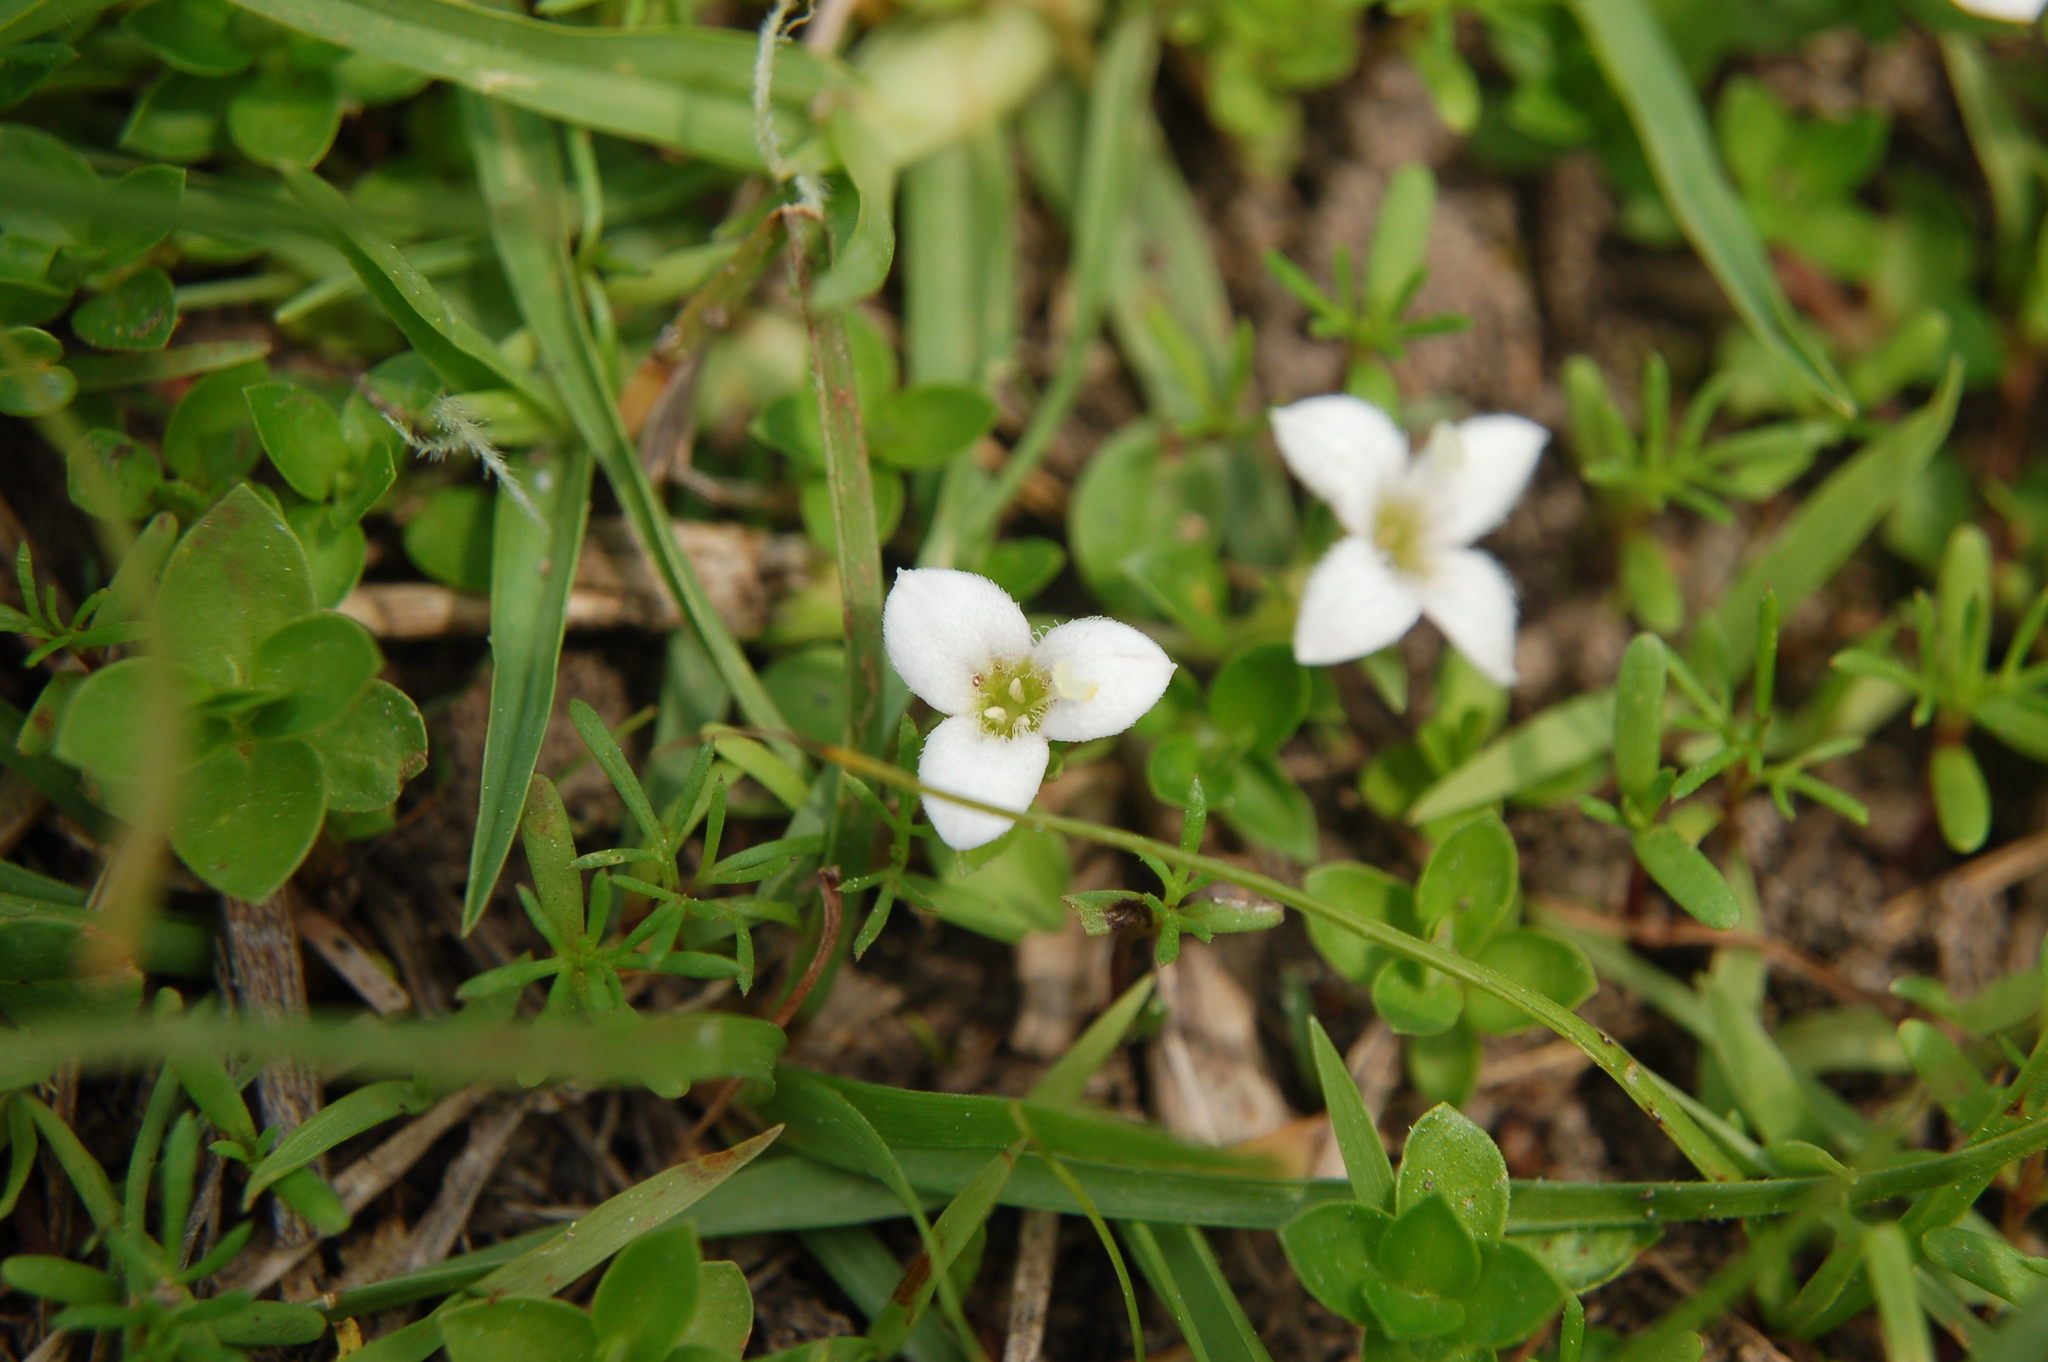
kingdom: Plantae
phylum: Tracheophyta
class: Magnoliopsida
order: Gentianales
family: Rubiaceae
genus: Arcytophyllum
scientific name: Arcytophyllum serpyllaceum
